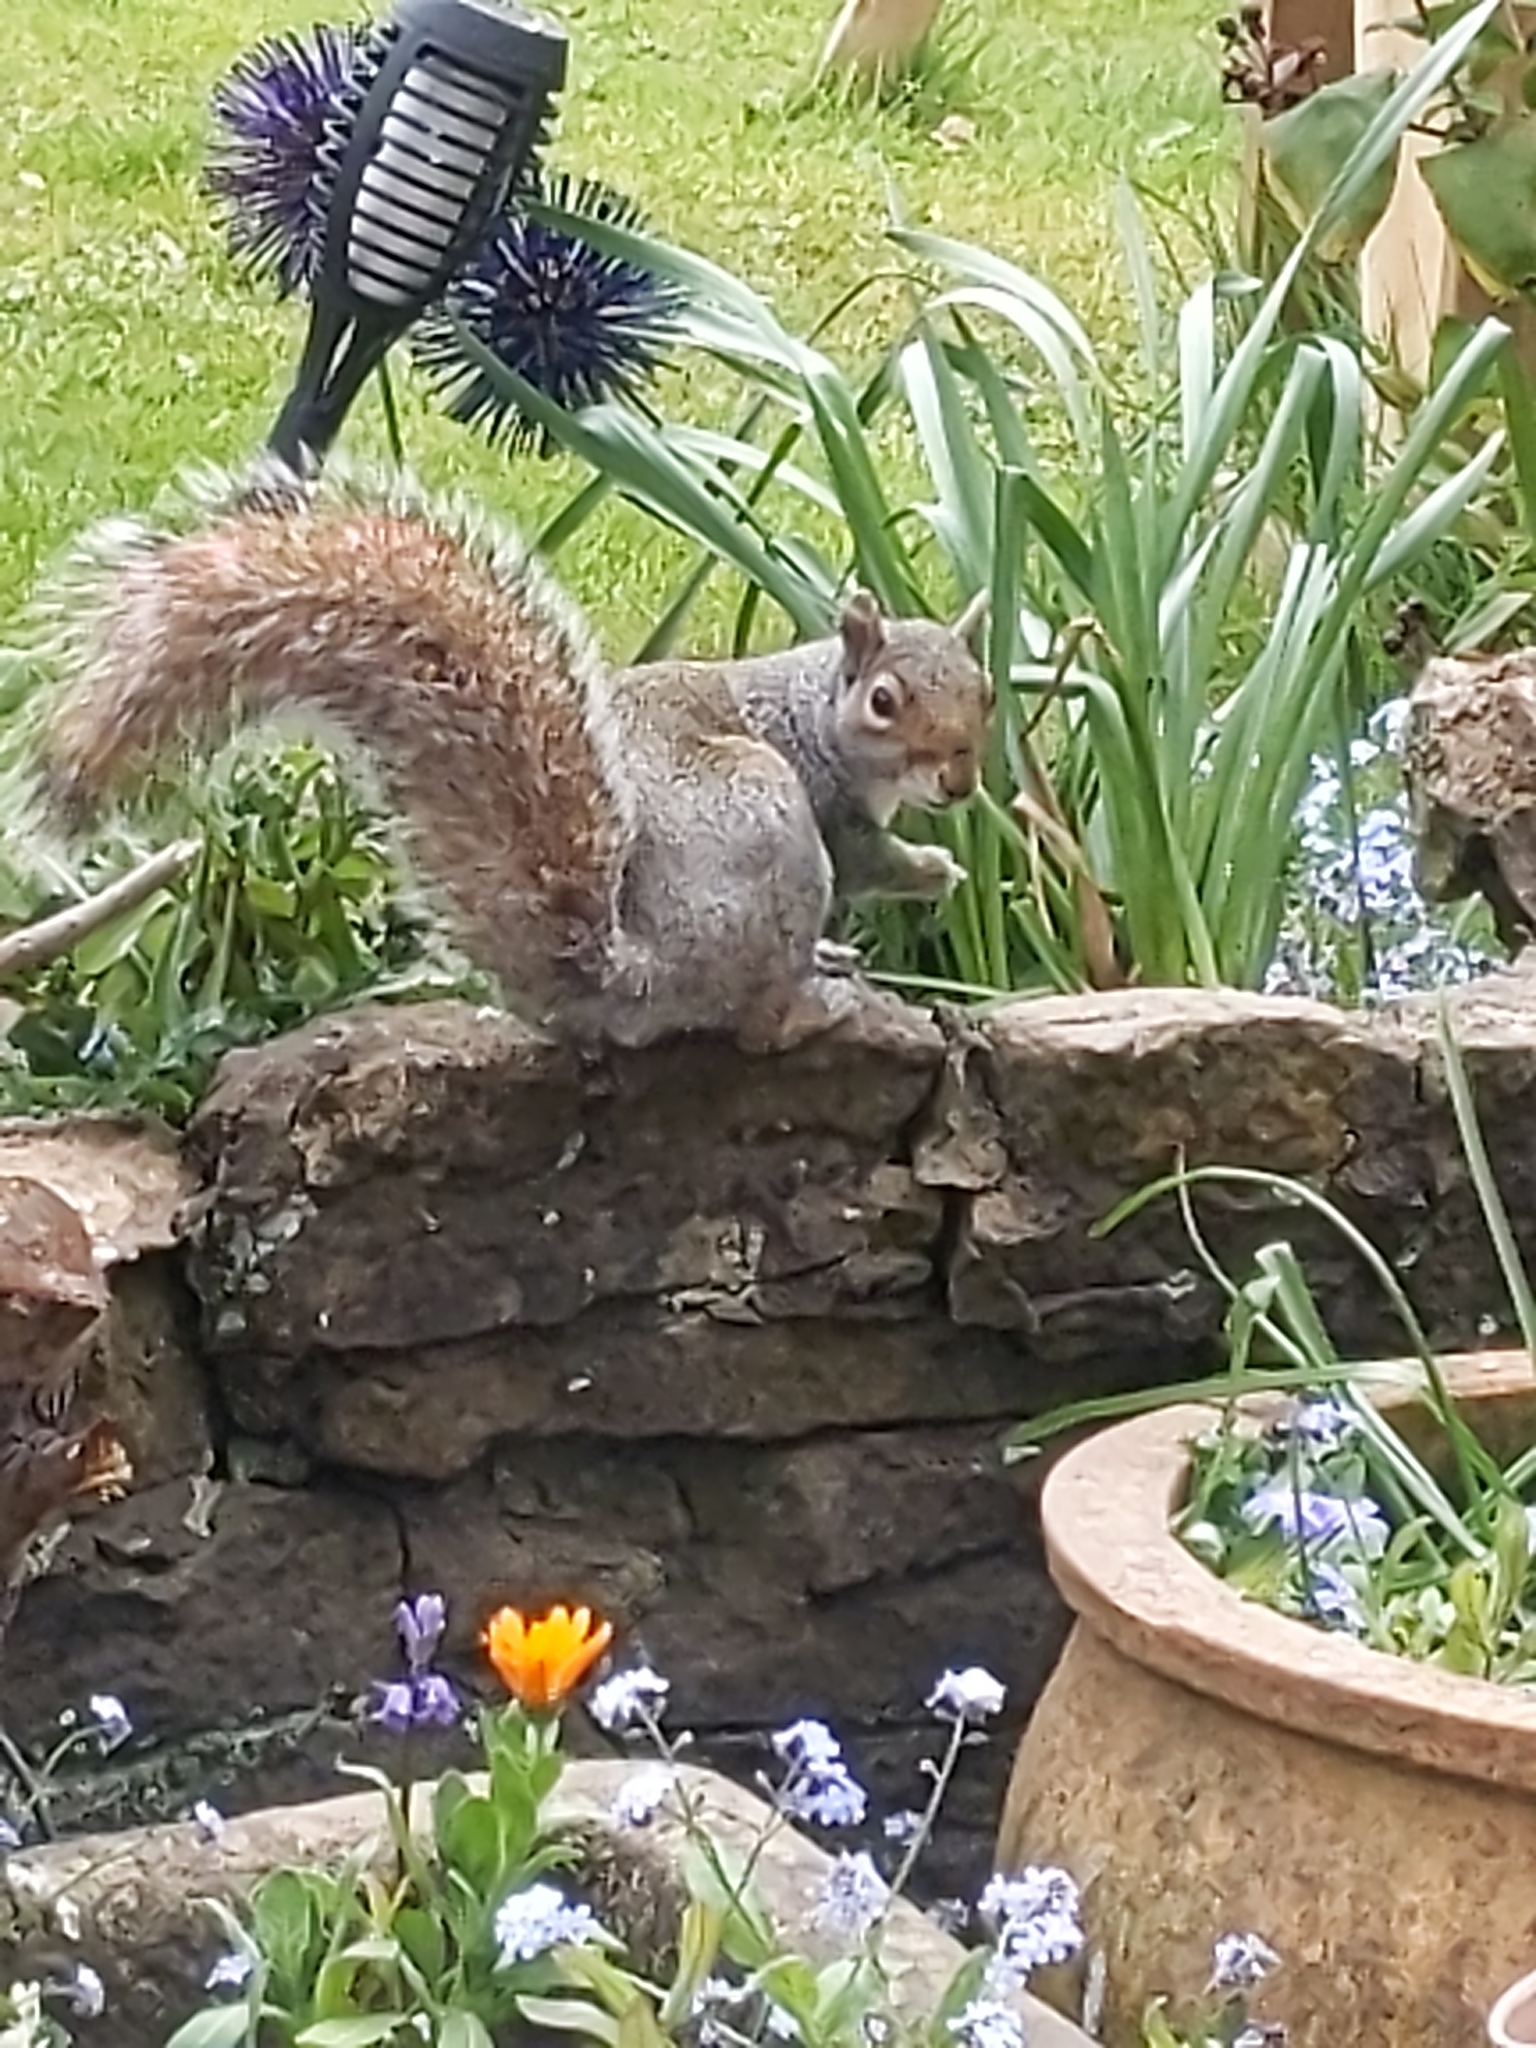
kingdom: Animalia
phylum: Chordata
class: Mammalia
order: Rodentia
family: Sciuridae
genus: Sciurus
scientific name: Sciurus carolinensis
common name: Eastern gray squirrel
